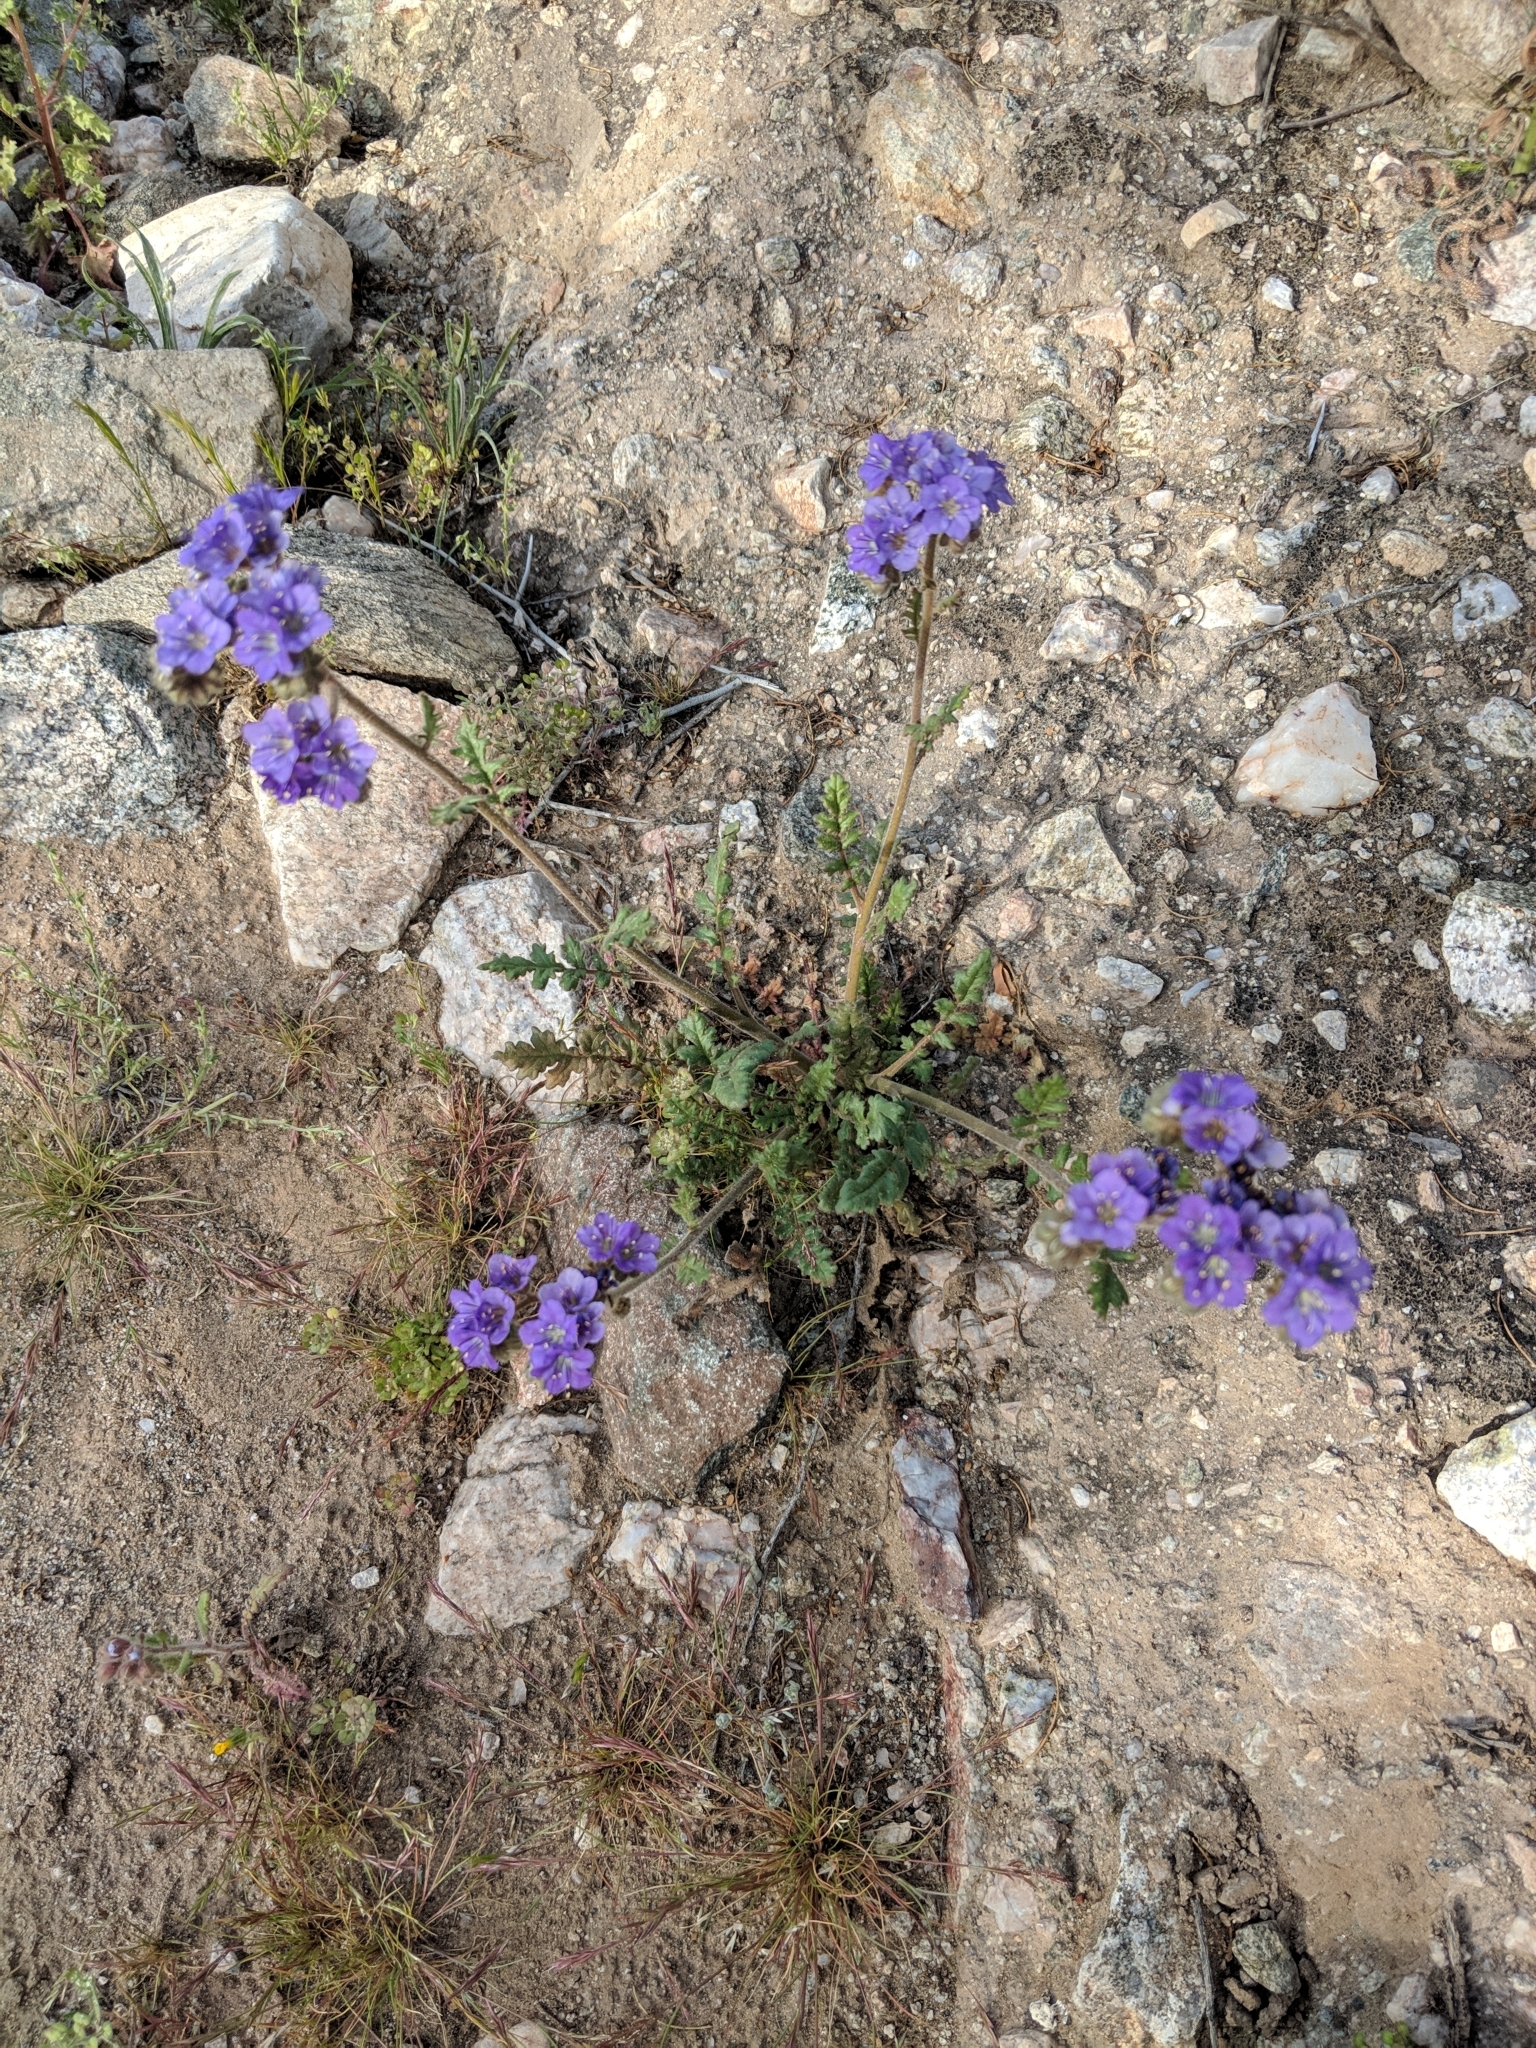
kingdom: Plantae
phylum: Tracheophyta
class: Magnoliopsida
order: Boraginales
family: Hydrophyllaceae
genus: Phacelia
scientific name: Phacelia crenulata
